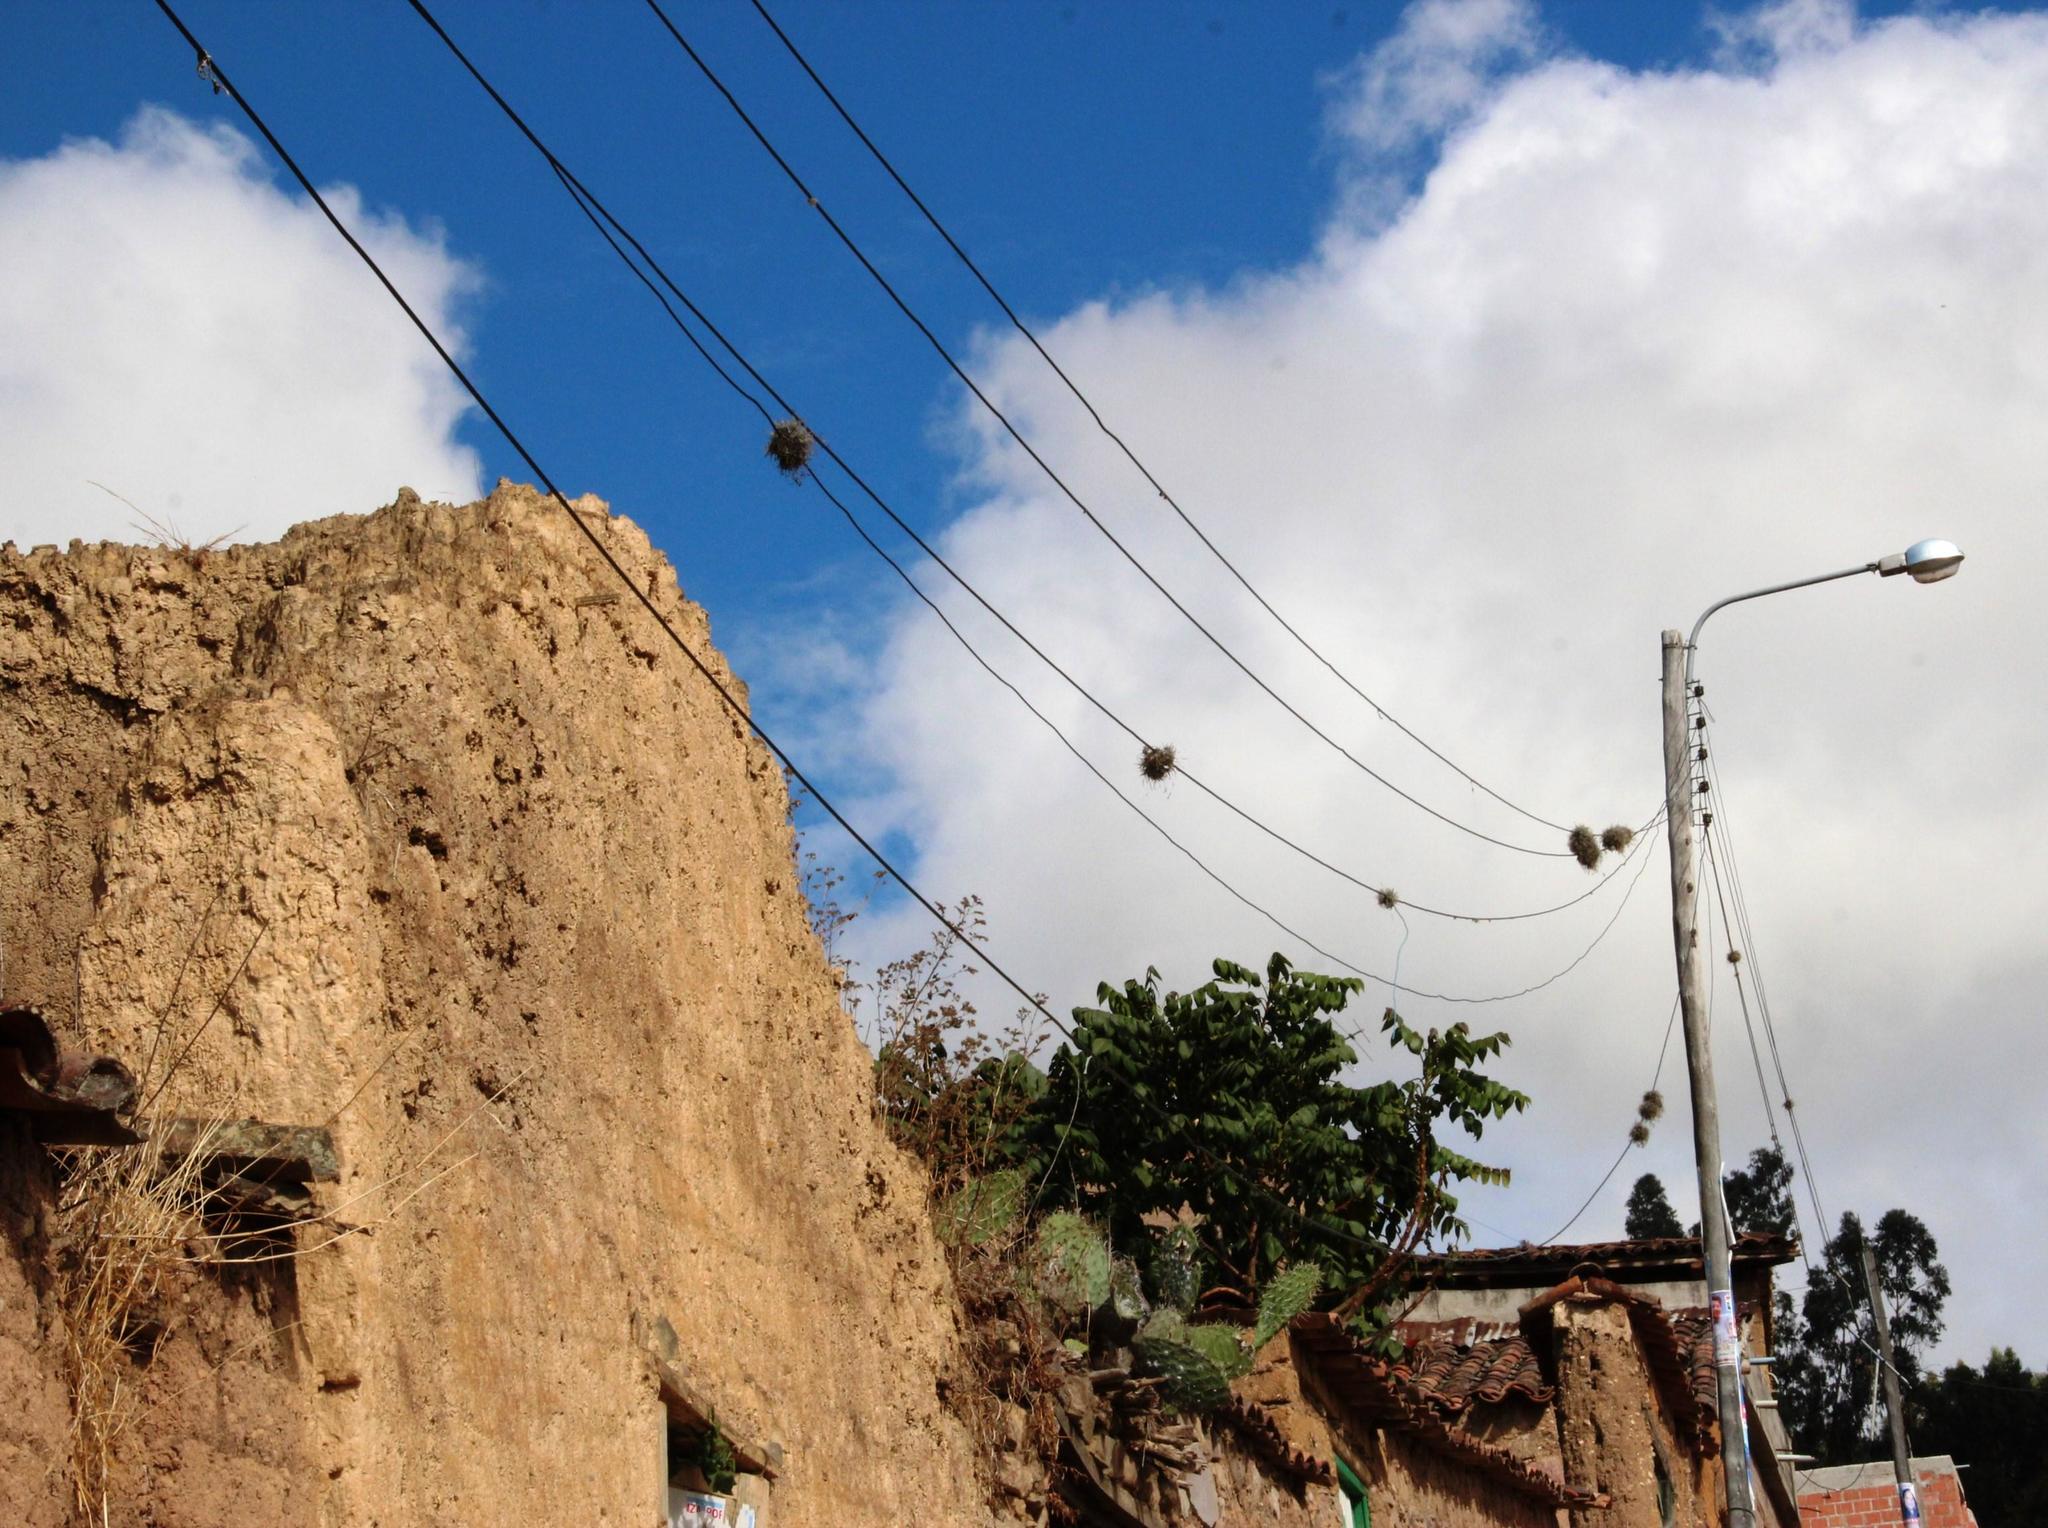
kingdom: Plantae
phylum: Tracheophyta
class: Liliopsida
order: Poales
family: Bromeliaceae
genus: Tillandsia
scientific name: Tillandsia recurvata
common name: Small ballmoss
